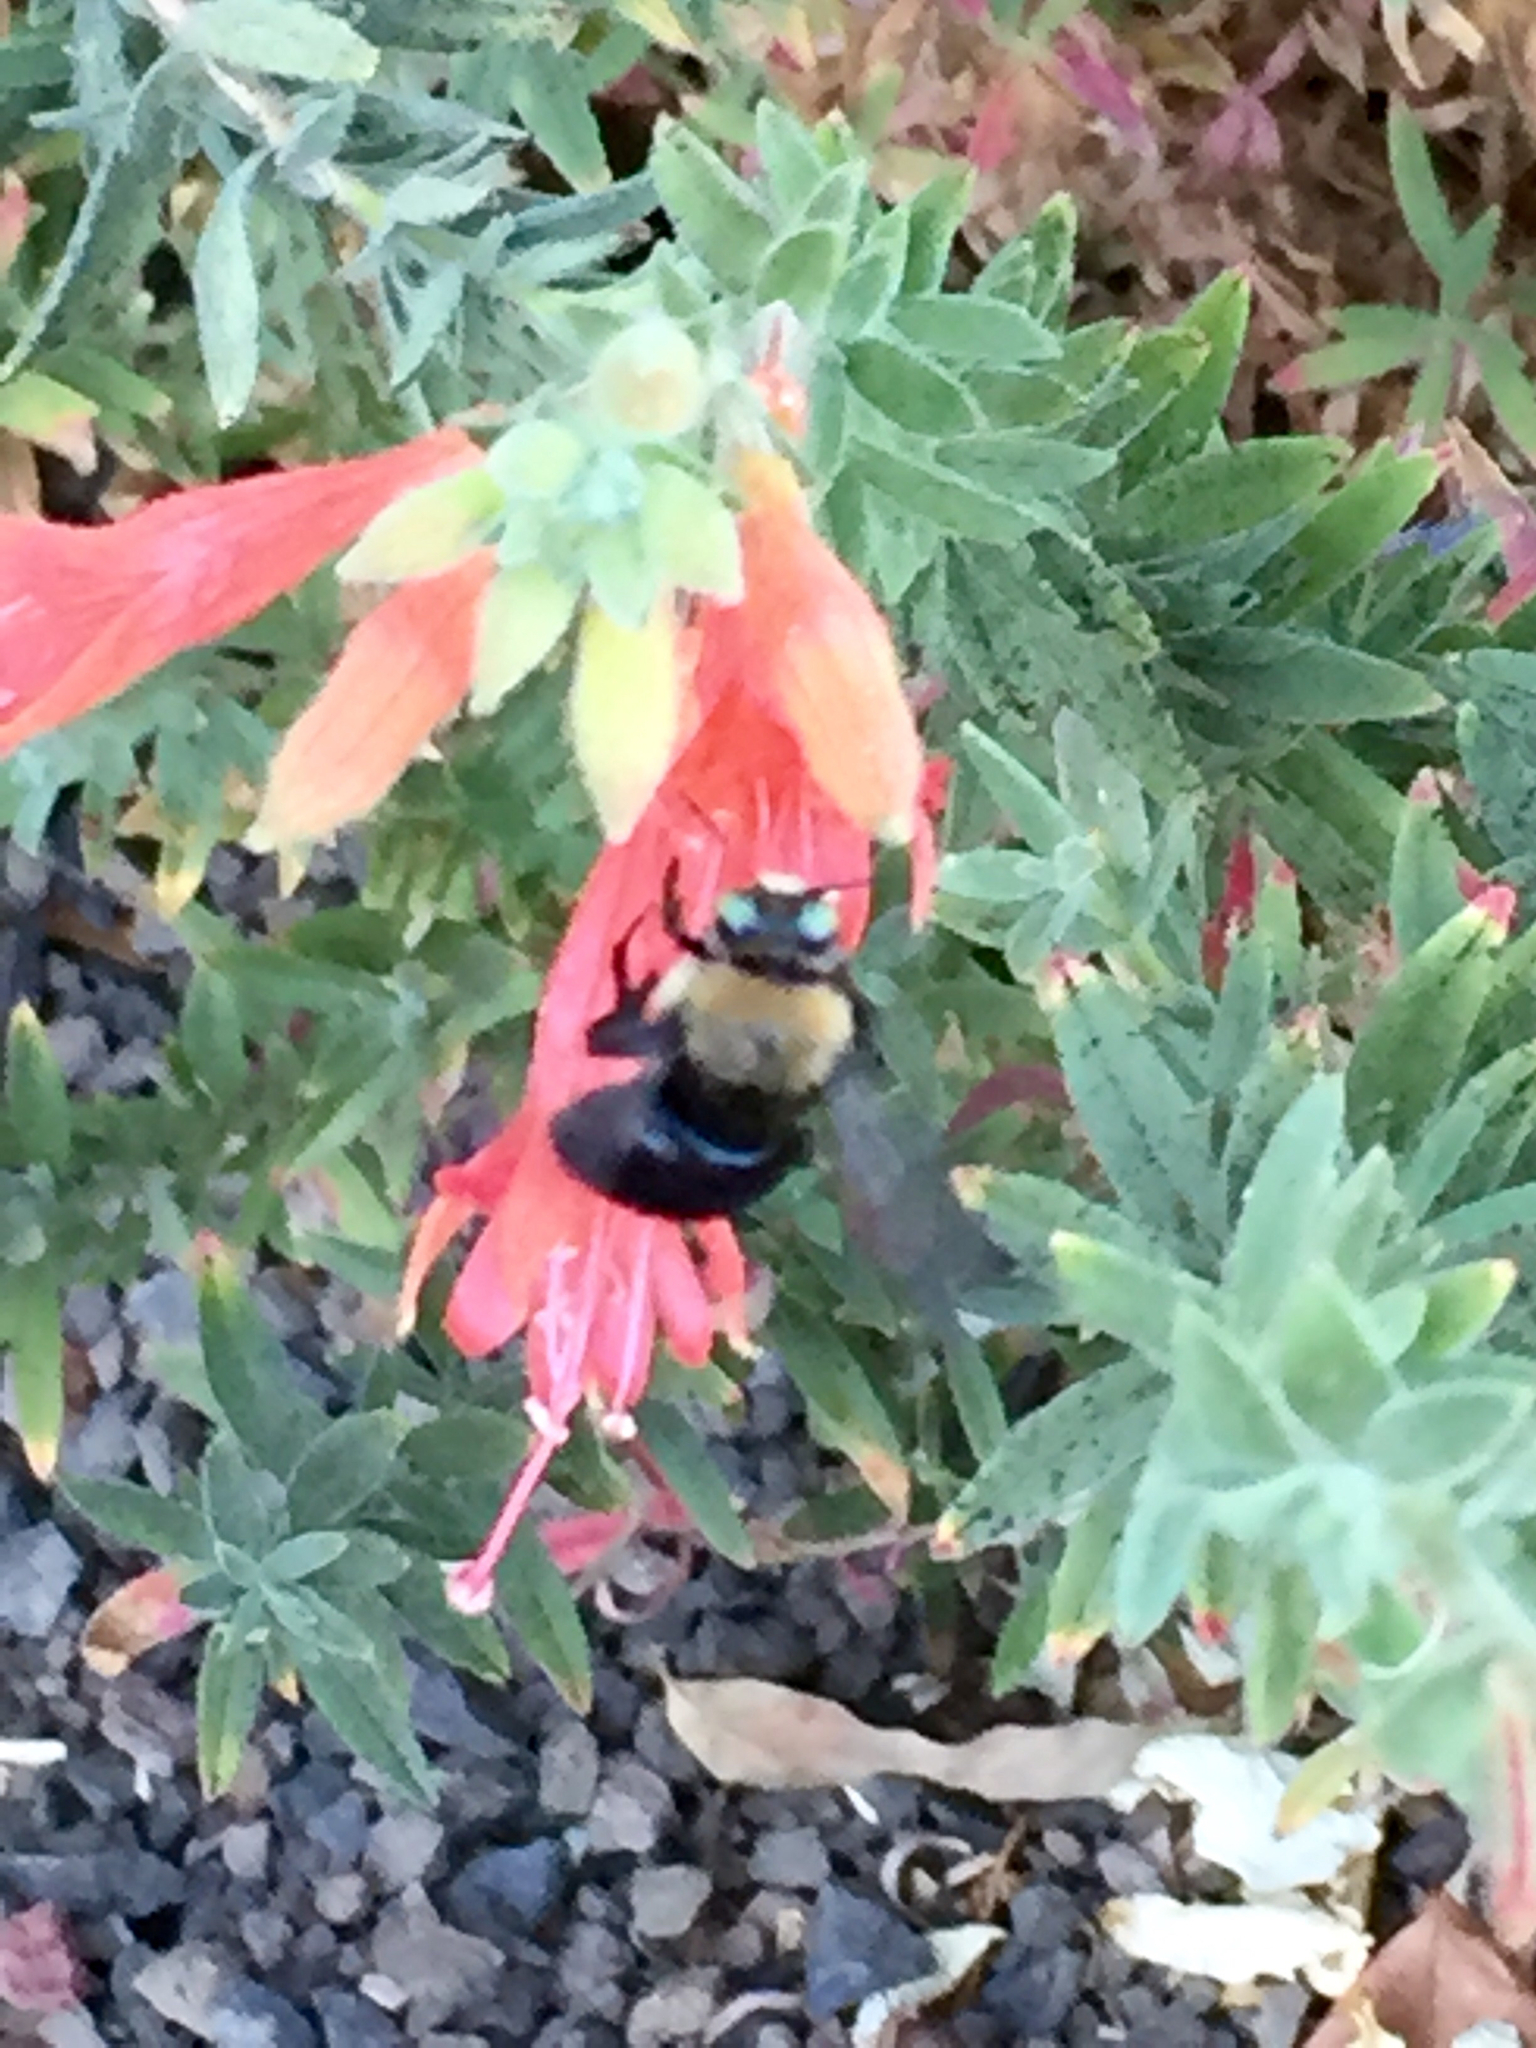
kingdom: Animalia
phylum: Arthropoda
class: Insecta
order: Hymenoptera
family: Apidae
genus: Xylocopa
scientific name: Xylocopa tabaniformis
